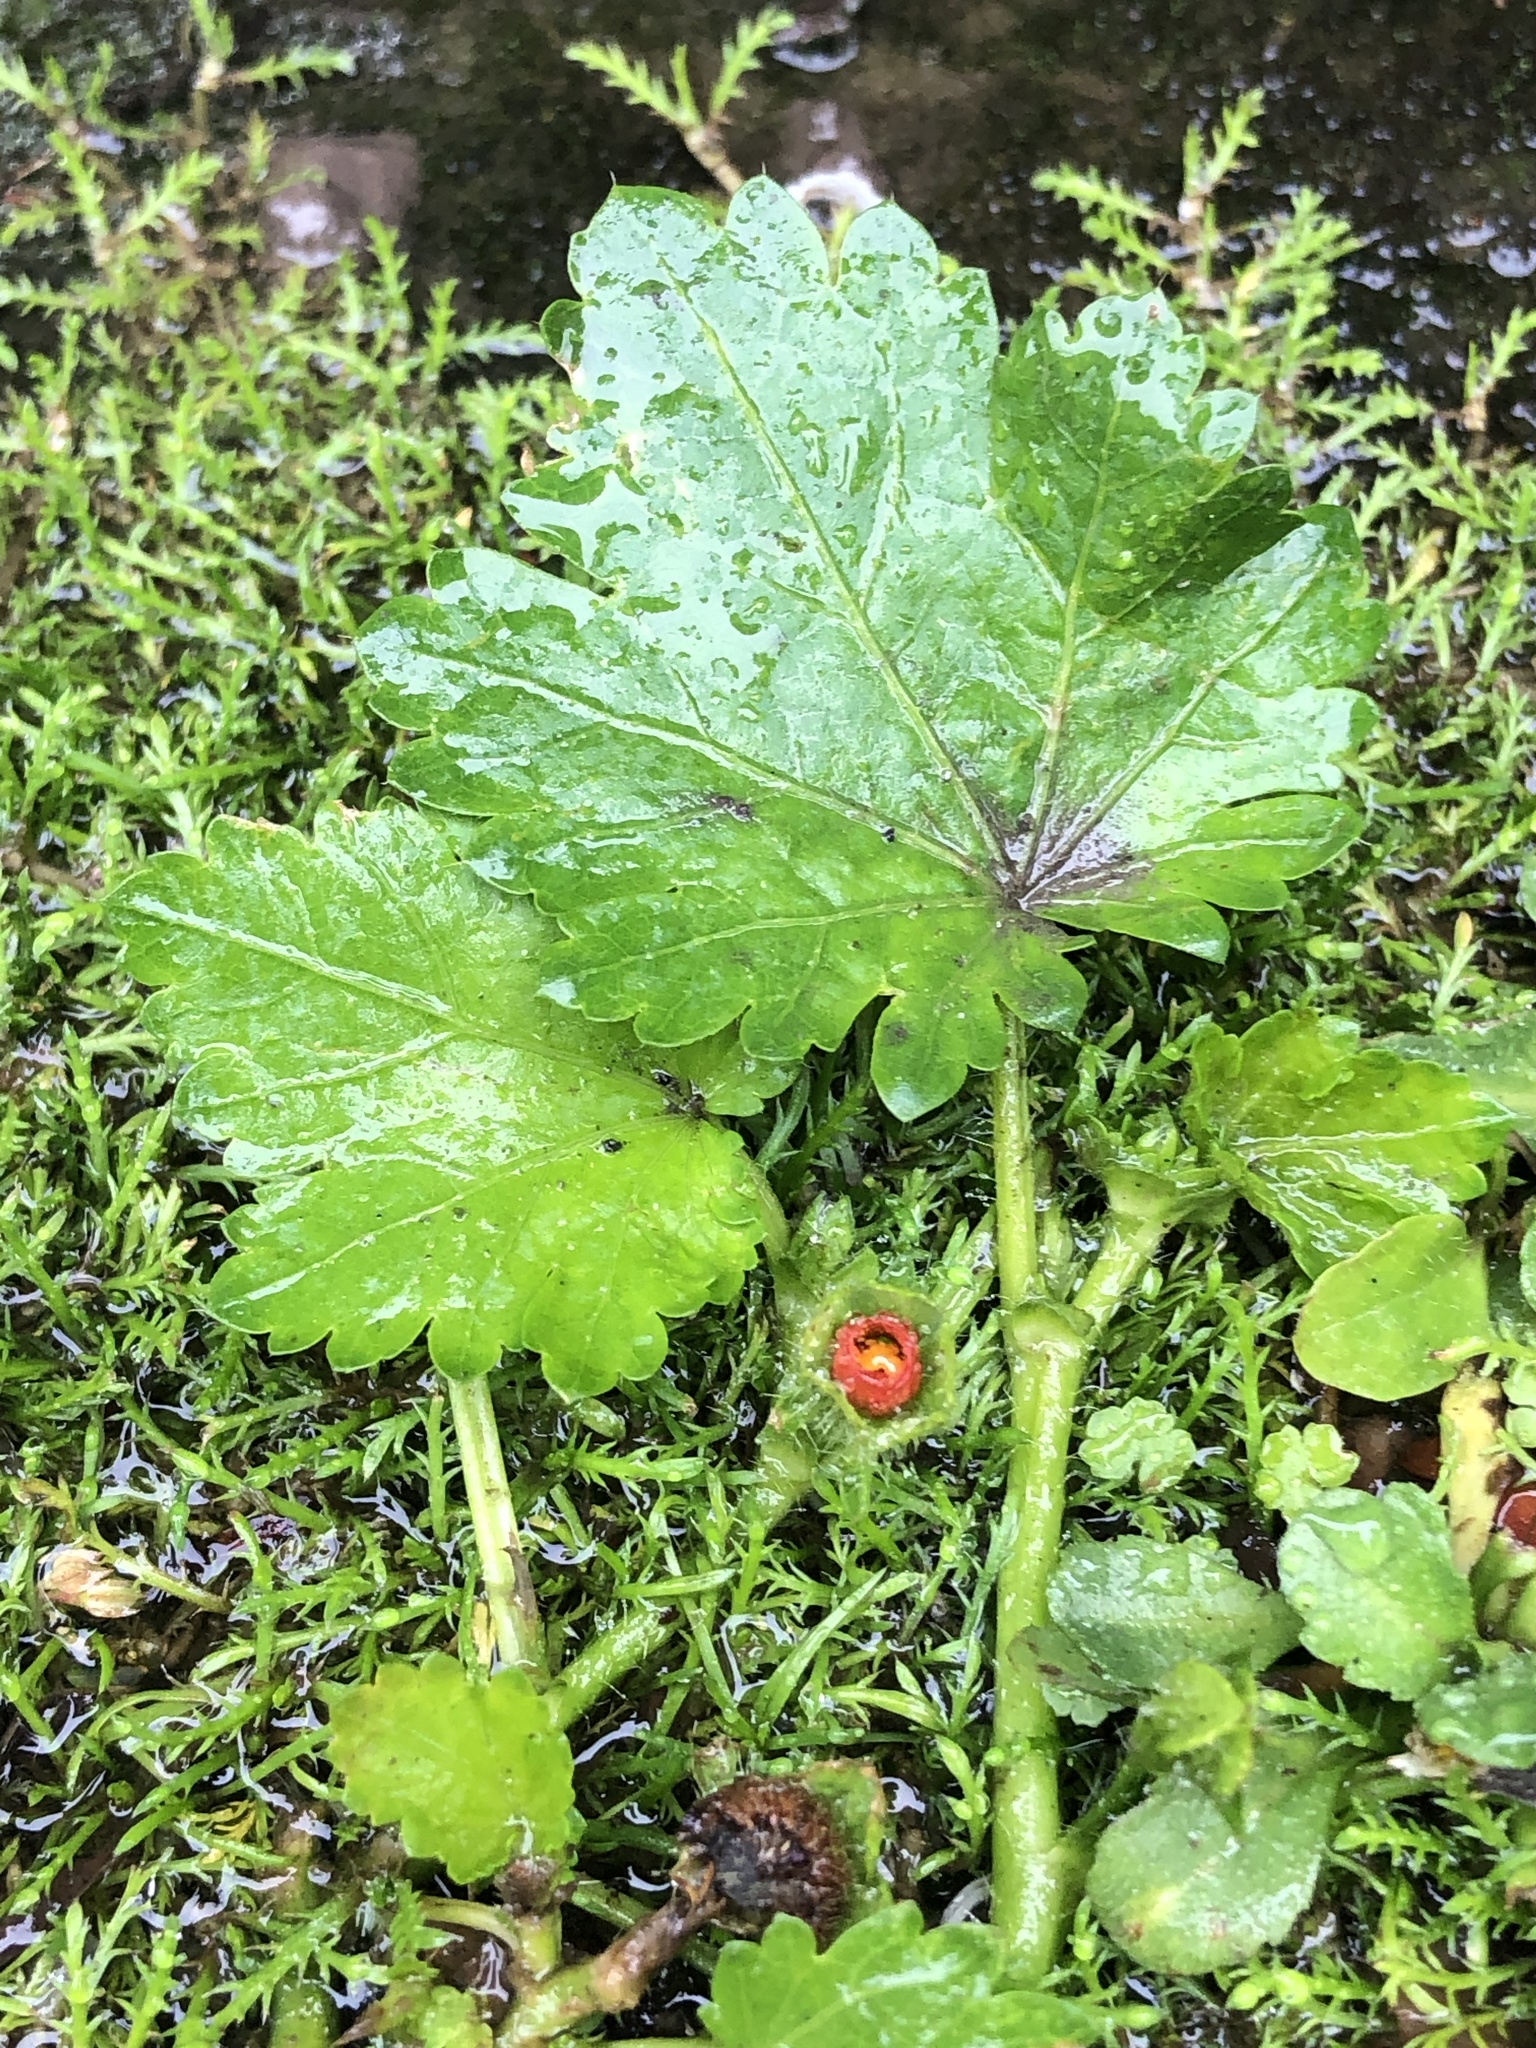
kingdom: Plantae
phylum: Tracheophyta
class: Magnoliopsida
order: Malvales
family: Malvaceae
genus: Modiola
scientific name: Modiola caroliniana
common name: Carolina bristlemallow
